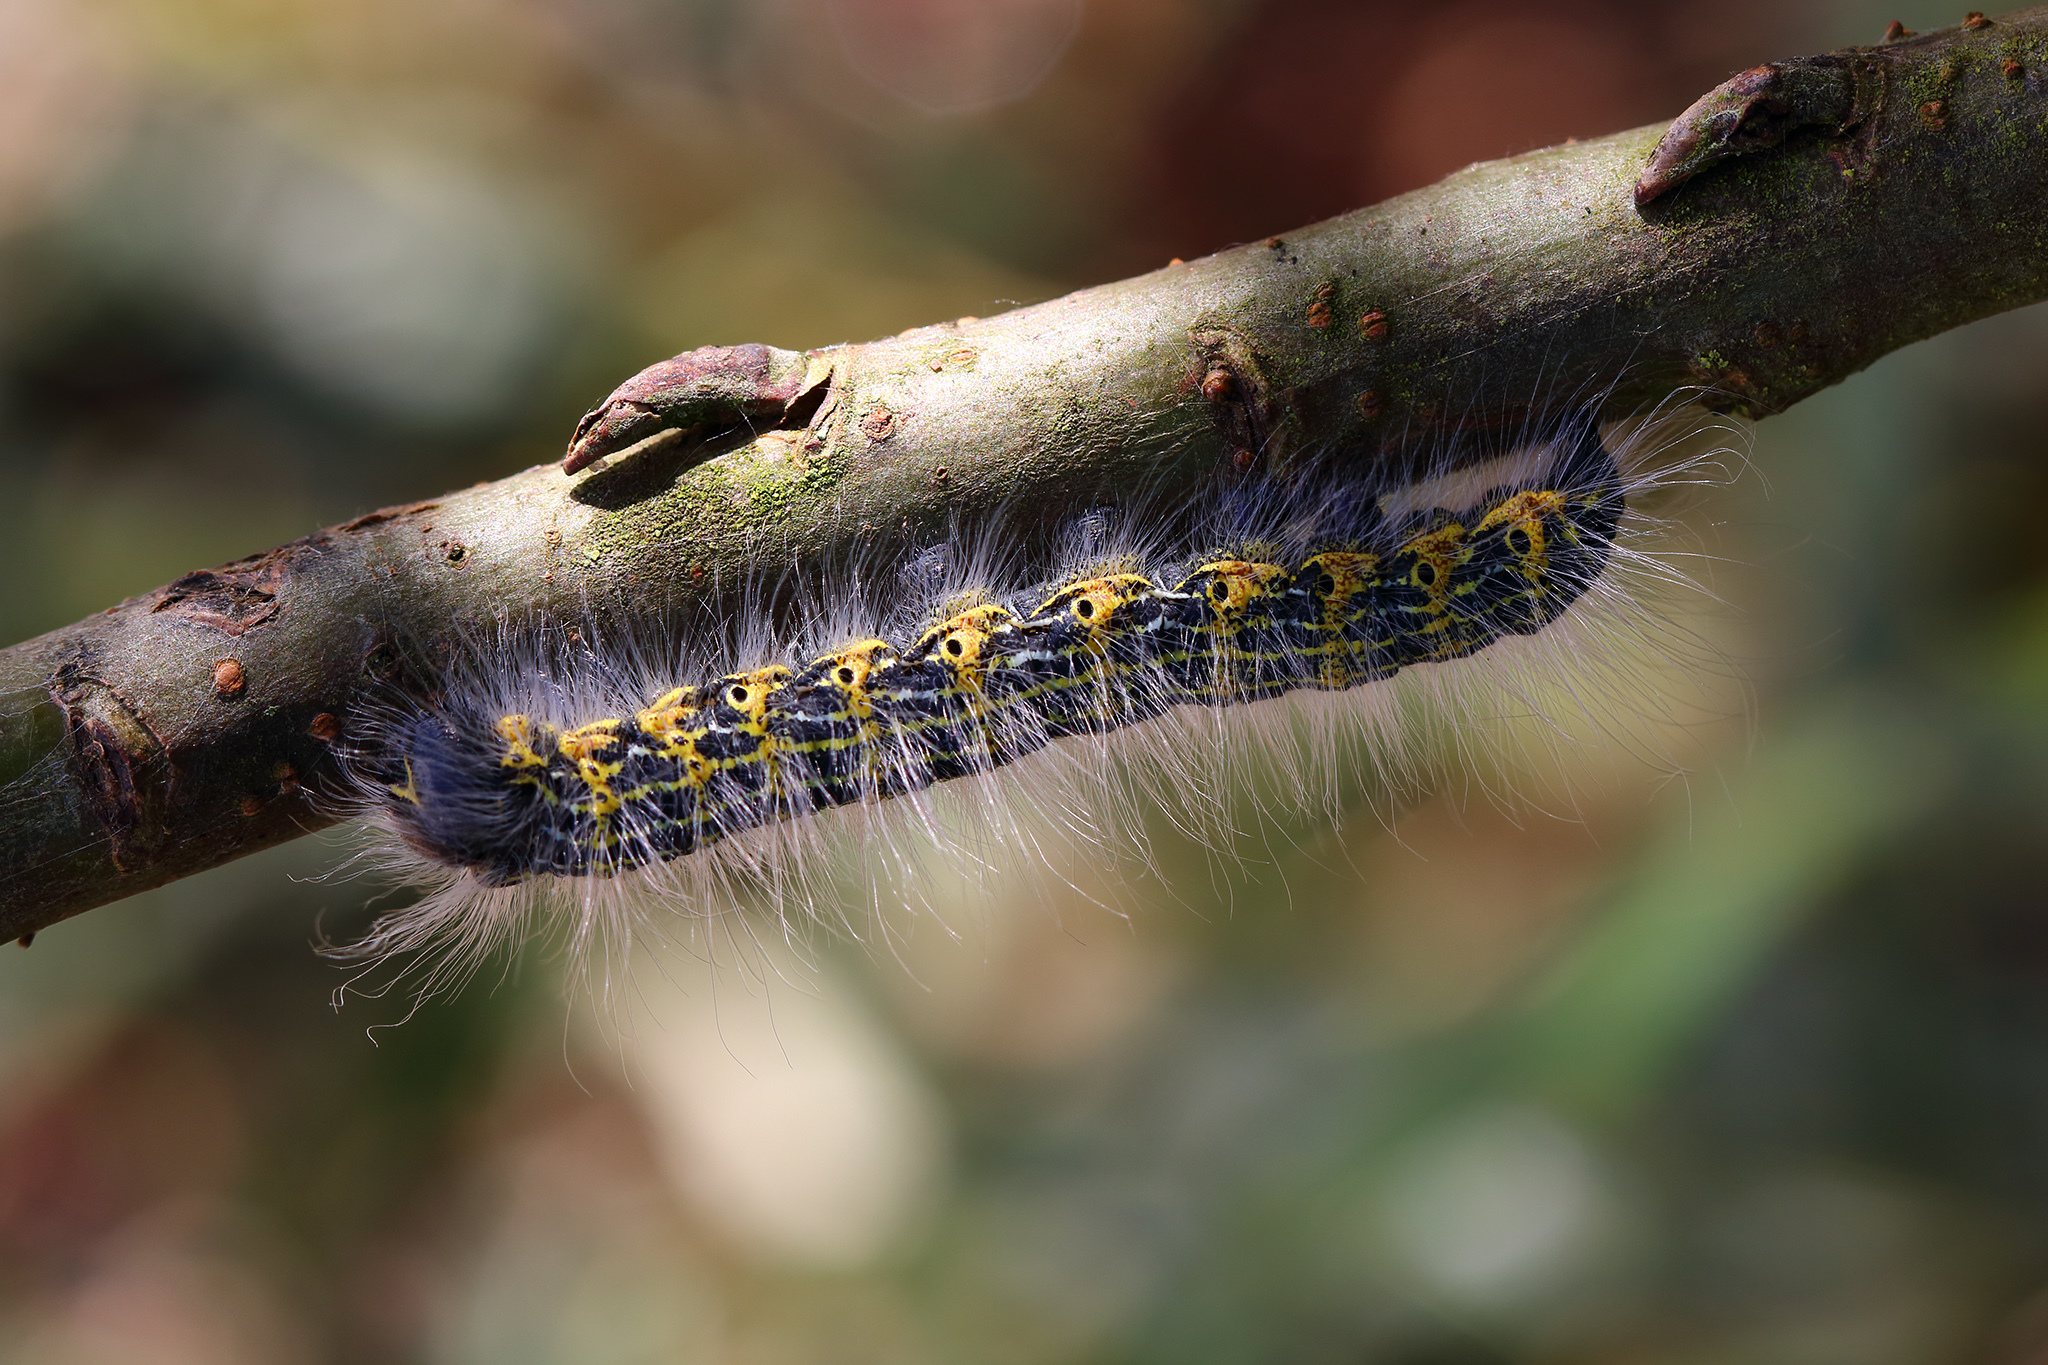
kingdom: Animalia
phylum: Arthropoda
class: Insecta
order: Lepidoptera
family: Notodontidae
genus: Phalera
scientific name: Phalera bucephala
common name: Buff-tip
